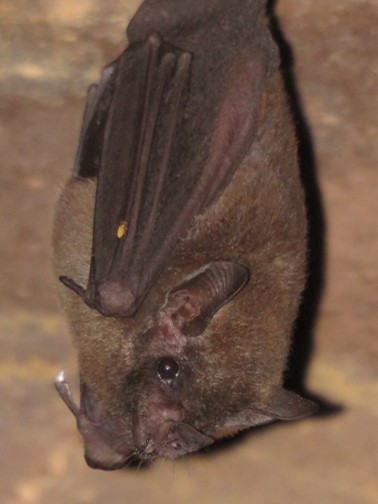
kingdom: Animalia
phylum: Chordata
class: Mammalia
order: Chiroptera
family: Phyllostomidae
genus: Glossophaga
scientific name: Glossophaga soricina
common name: Pallas's long-tongued bat
